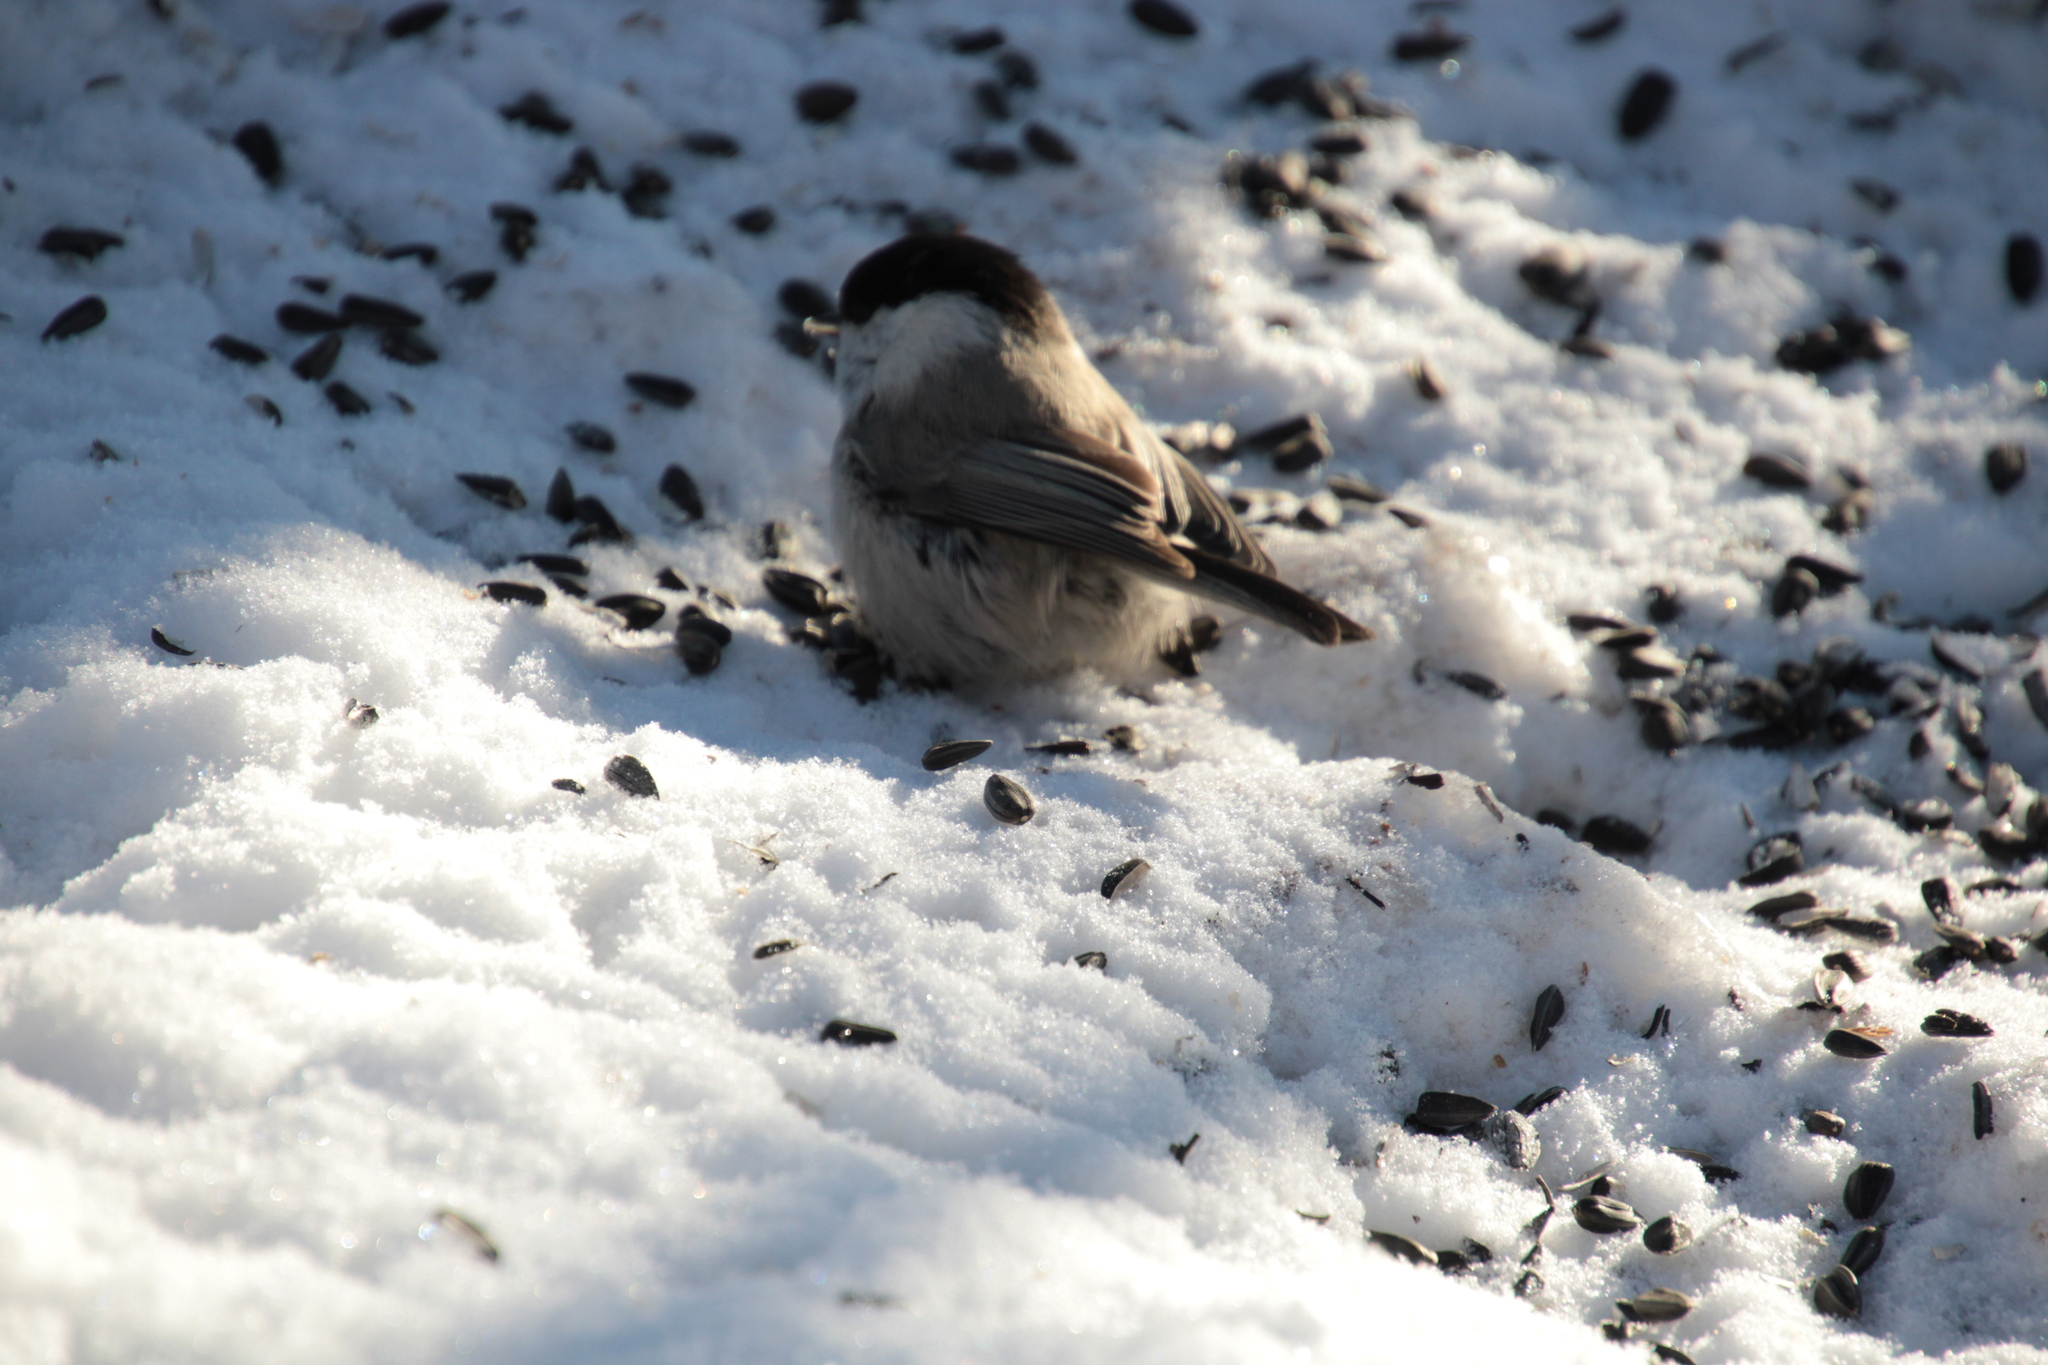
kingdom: Animalia
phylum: Chordata
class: Aves
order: Passeriformes
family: Paridae
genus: Poecile
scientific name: Poecile montanus
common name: Willow tit
